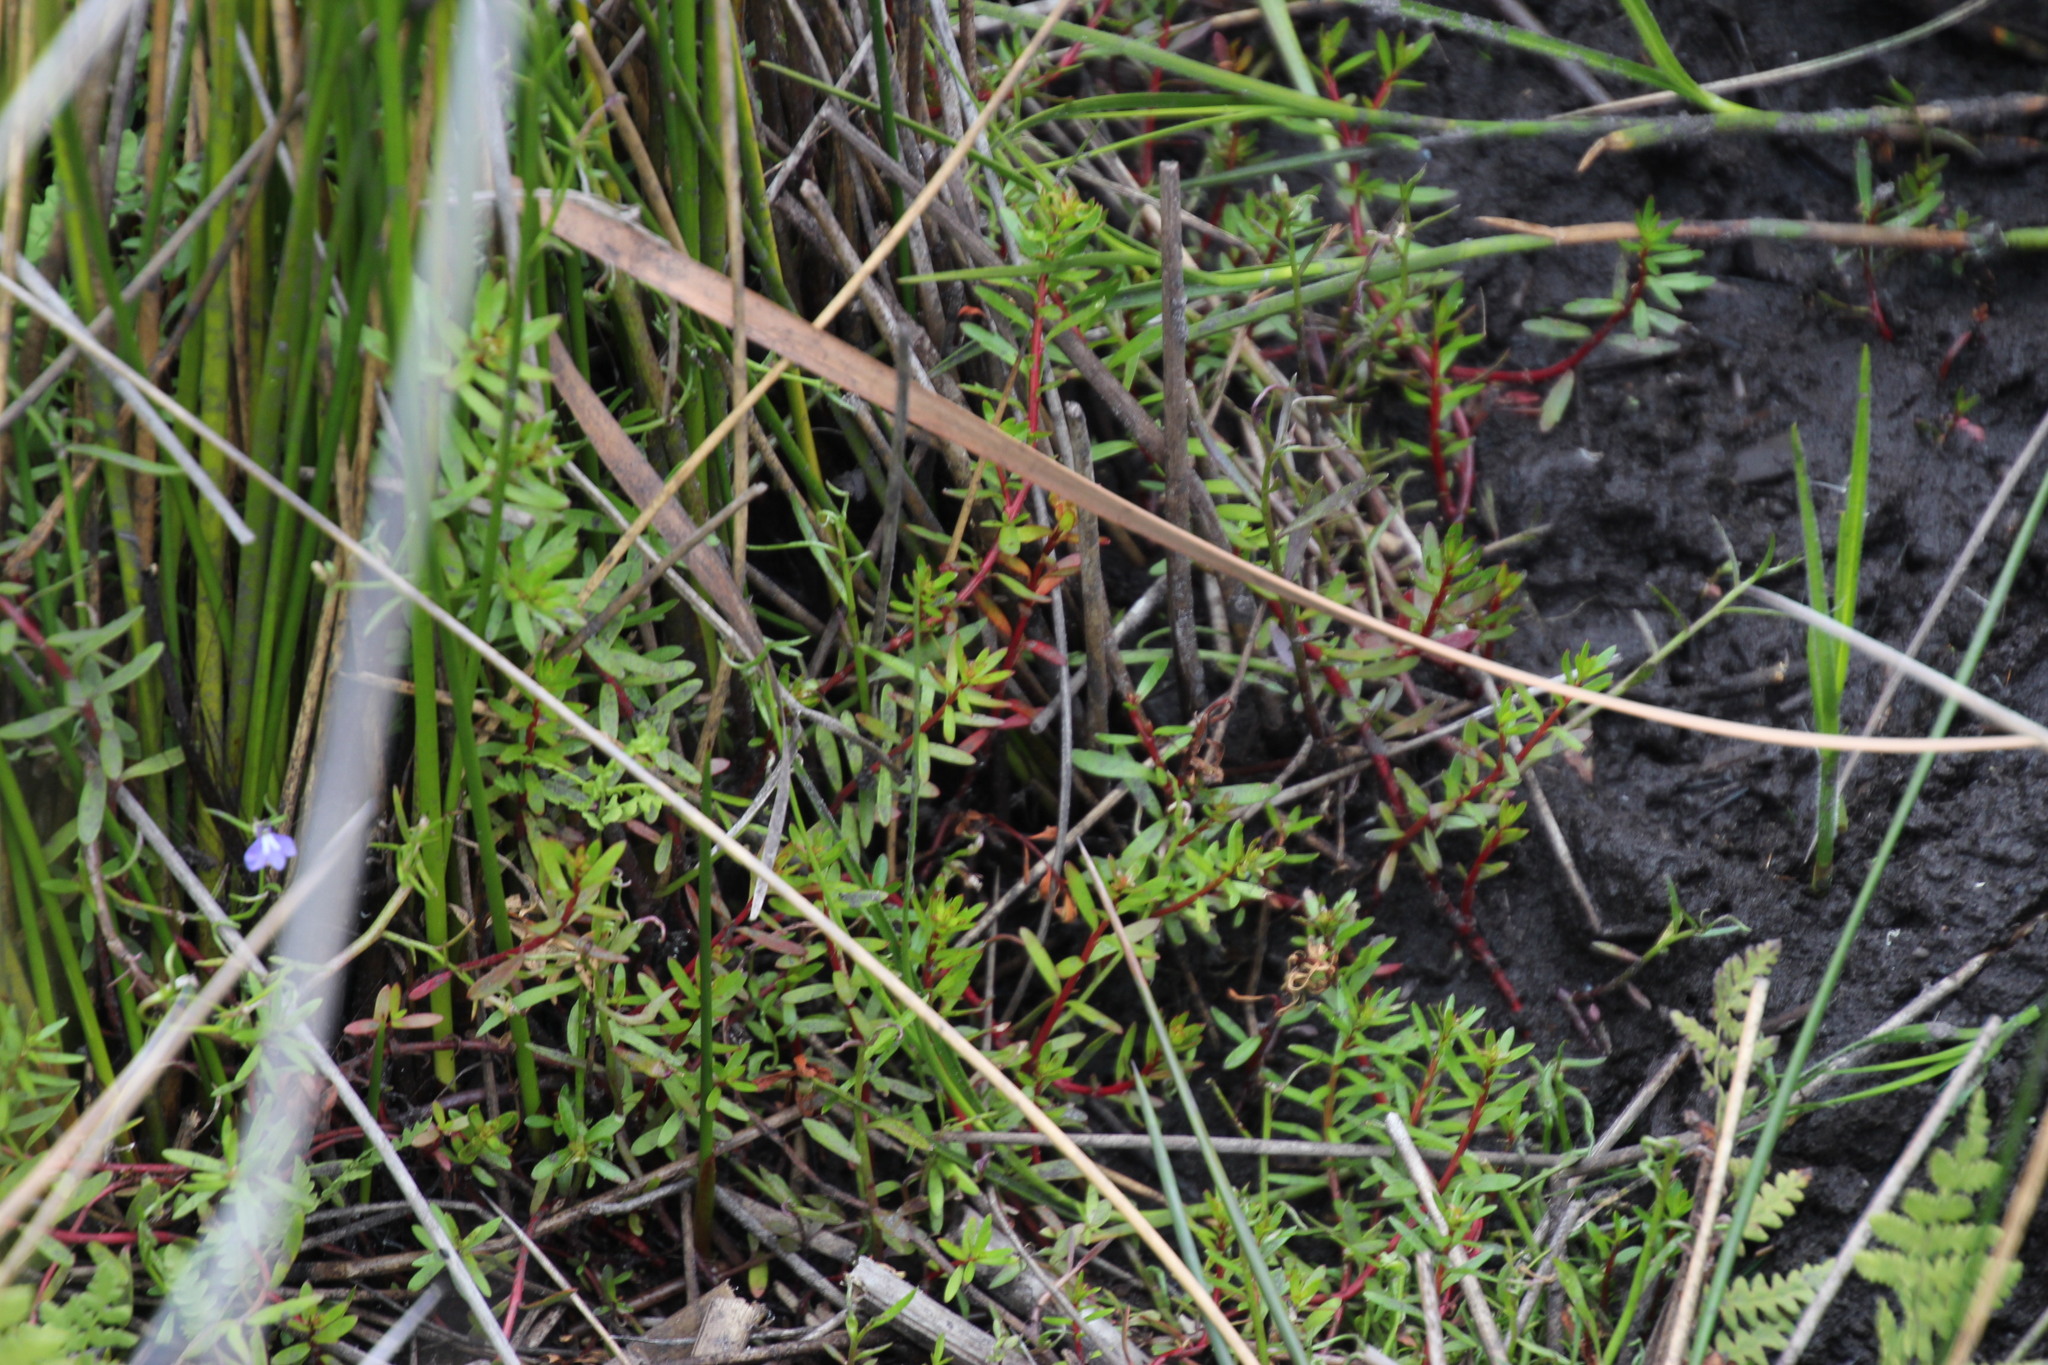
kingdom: Plantae
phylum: Tracheophyta
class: Magnoliopsida
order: Saxifragales
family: Haloragaceae
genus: Laurembergia
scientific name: Laurembergia repens
